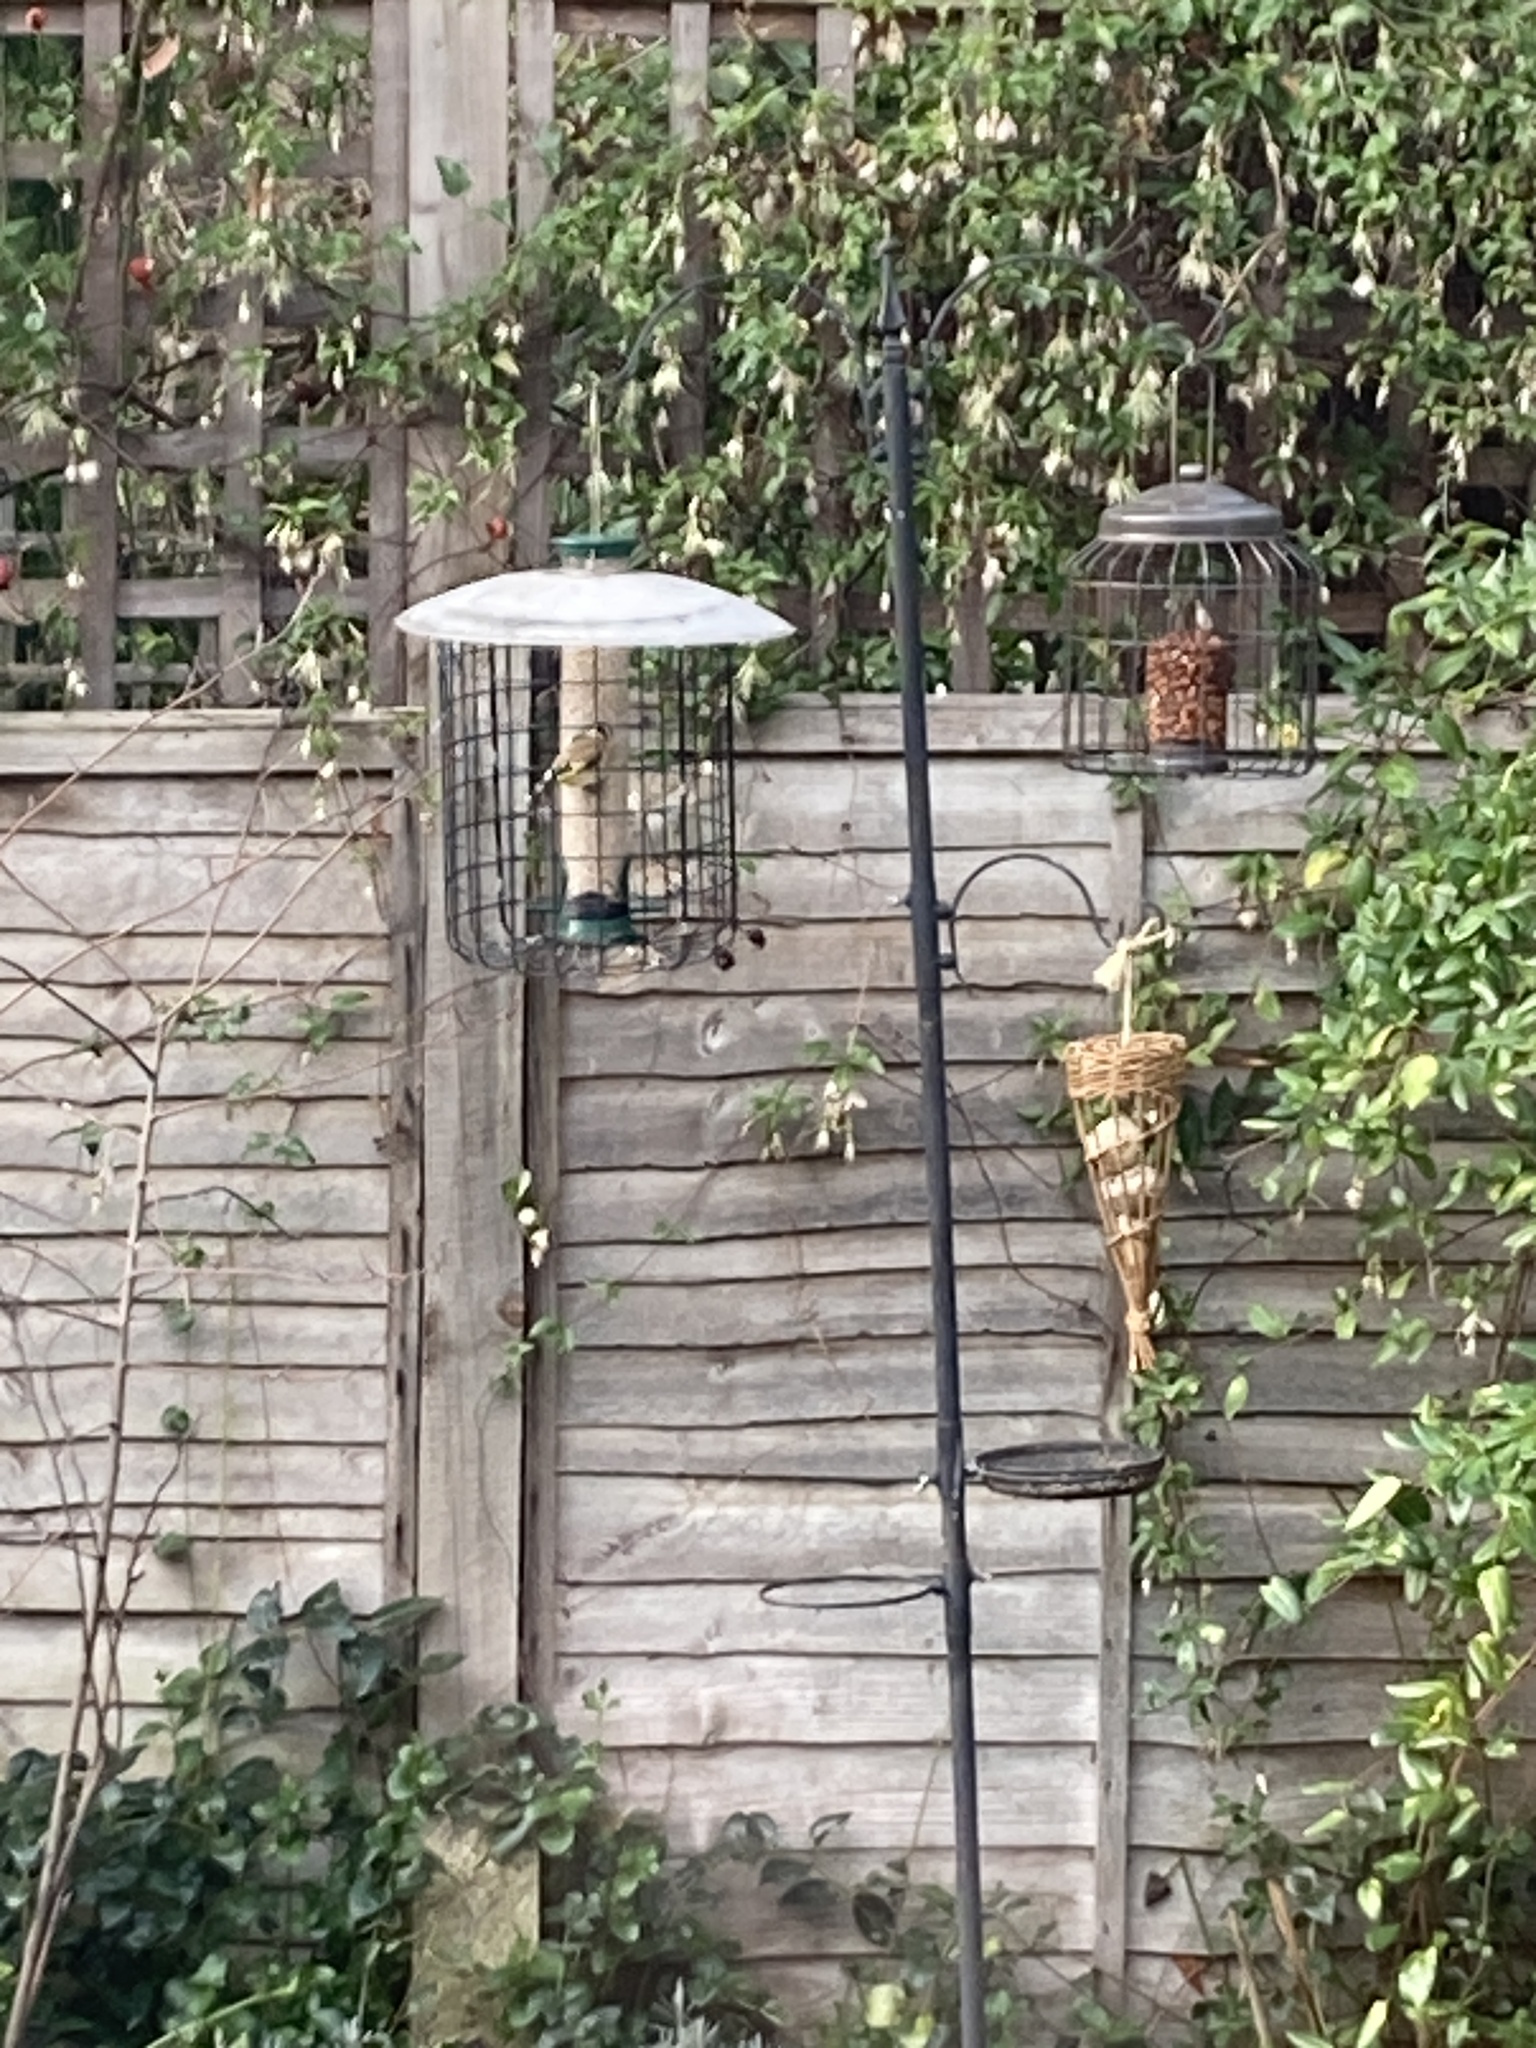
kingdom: Animalia
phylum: Chordata
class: Aves
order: Passeriformes
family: Fringillidae
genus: Carduelis
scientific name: Carduelis carduelis
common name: European goldfinch
